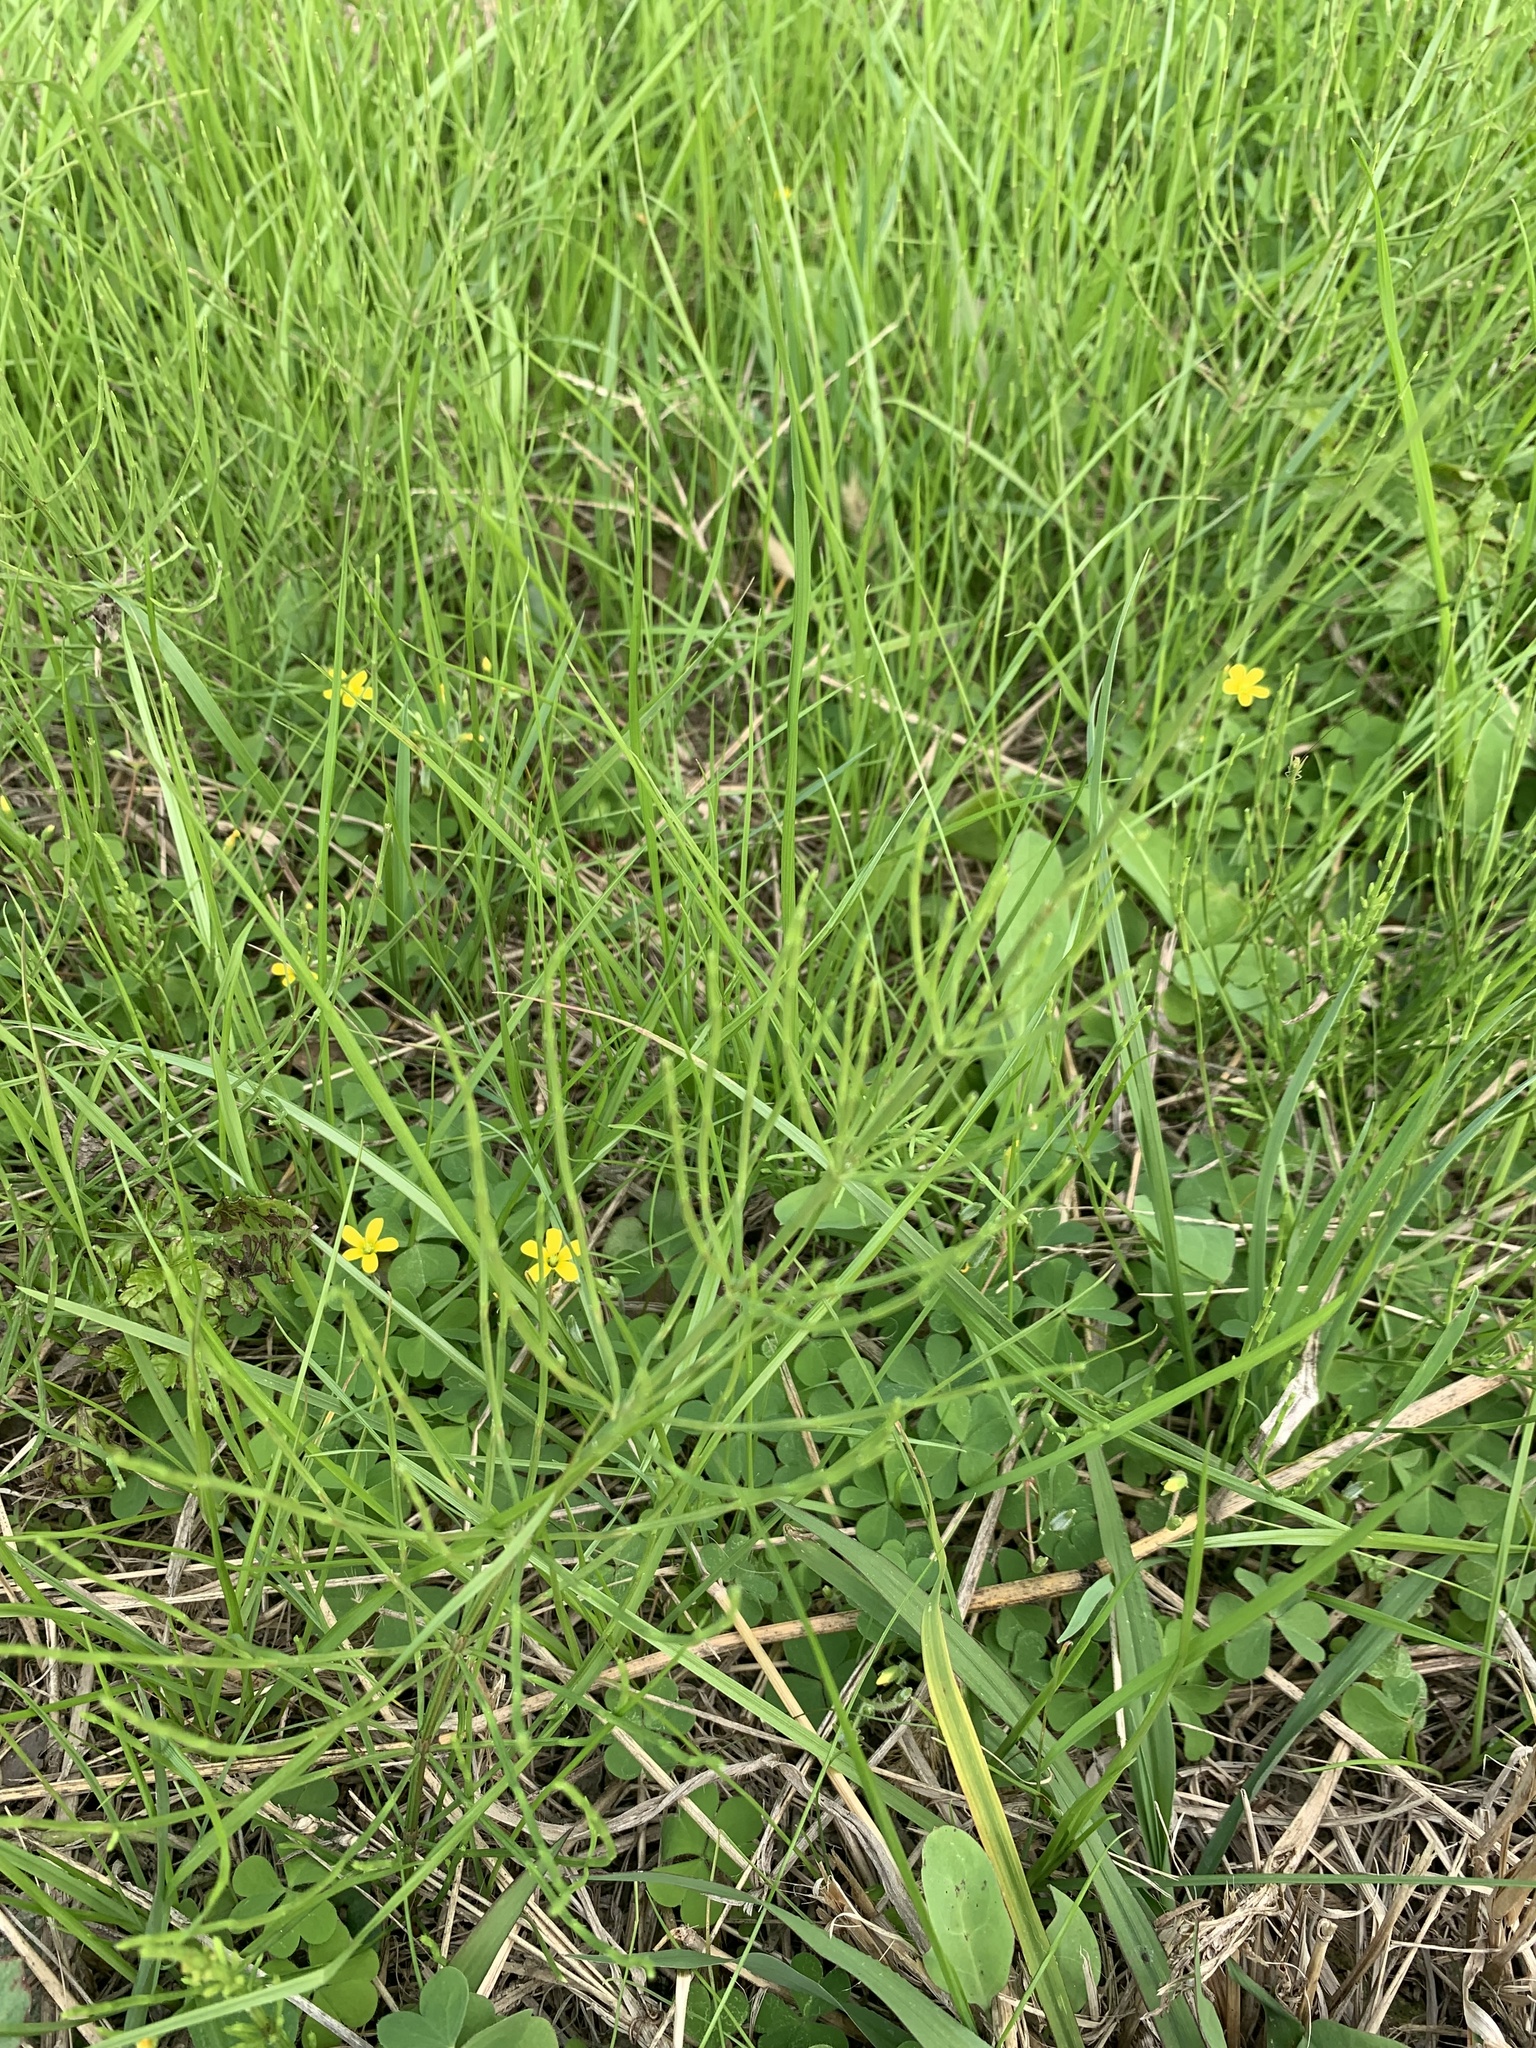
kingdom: Plantae
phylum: Tracheophyta
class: Polypodiopsida
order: Equisetales
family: Equisetaceae
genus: Equisetum
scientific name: Equisetum arvense
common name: Field horsetail
